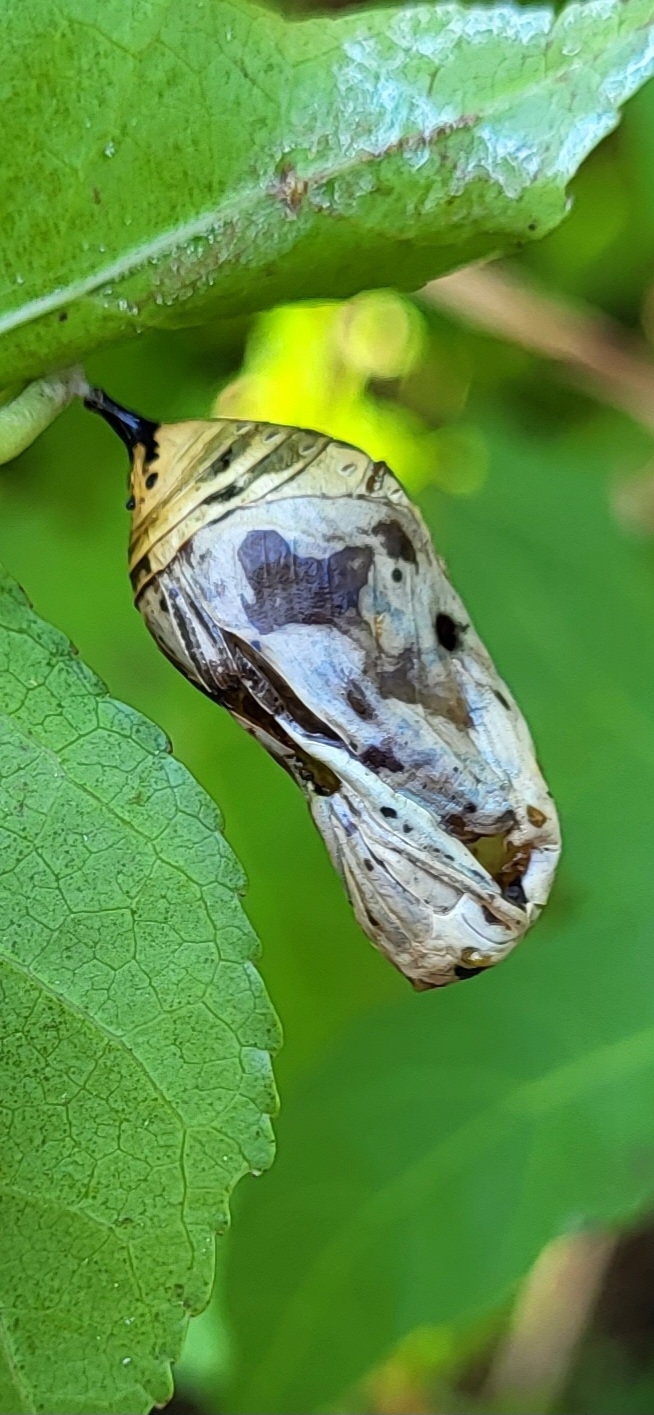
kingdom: Animalia
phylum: Arthropoda
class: Insecta
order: Lepidoptera
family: Nymphalidae
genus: Danaus
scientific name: Danaus plexippus
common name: Monarch
